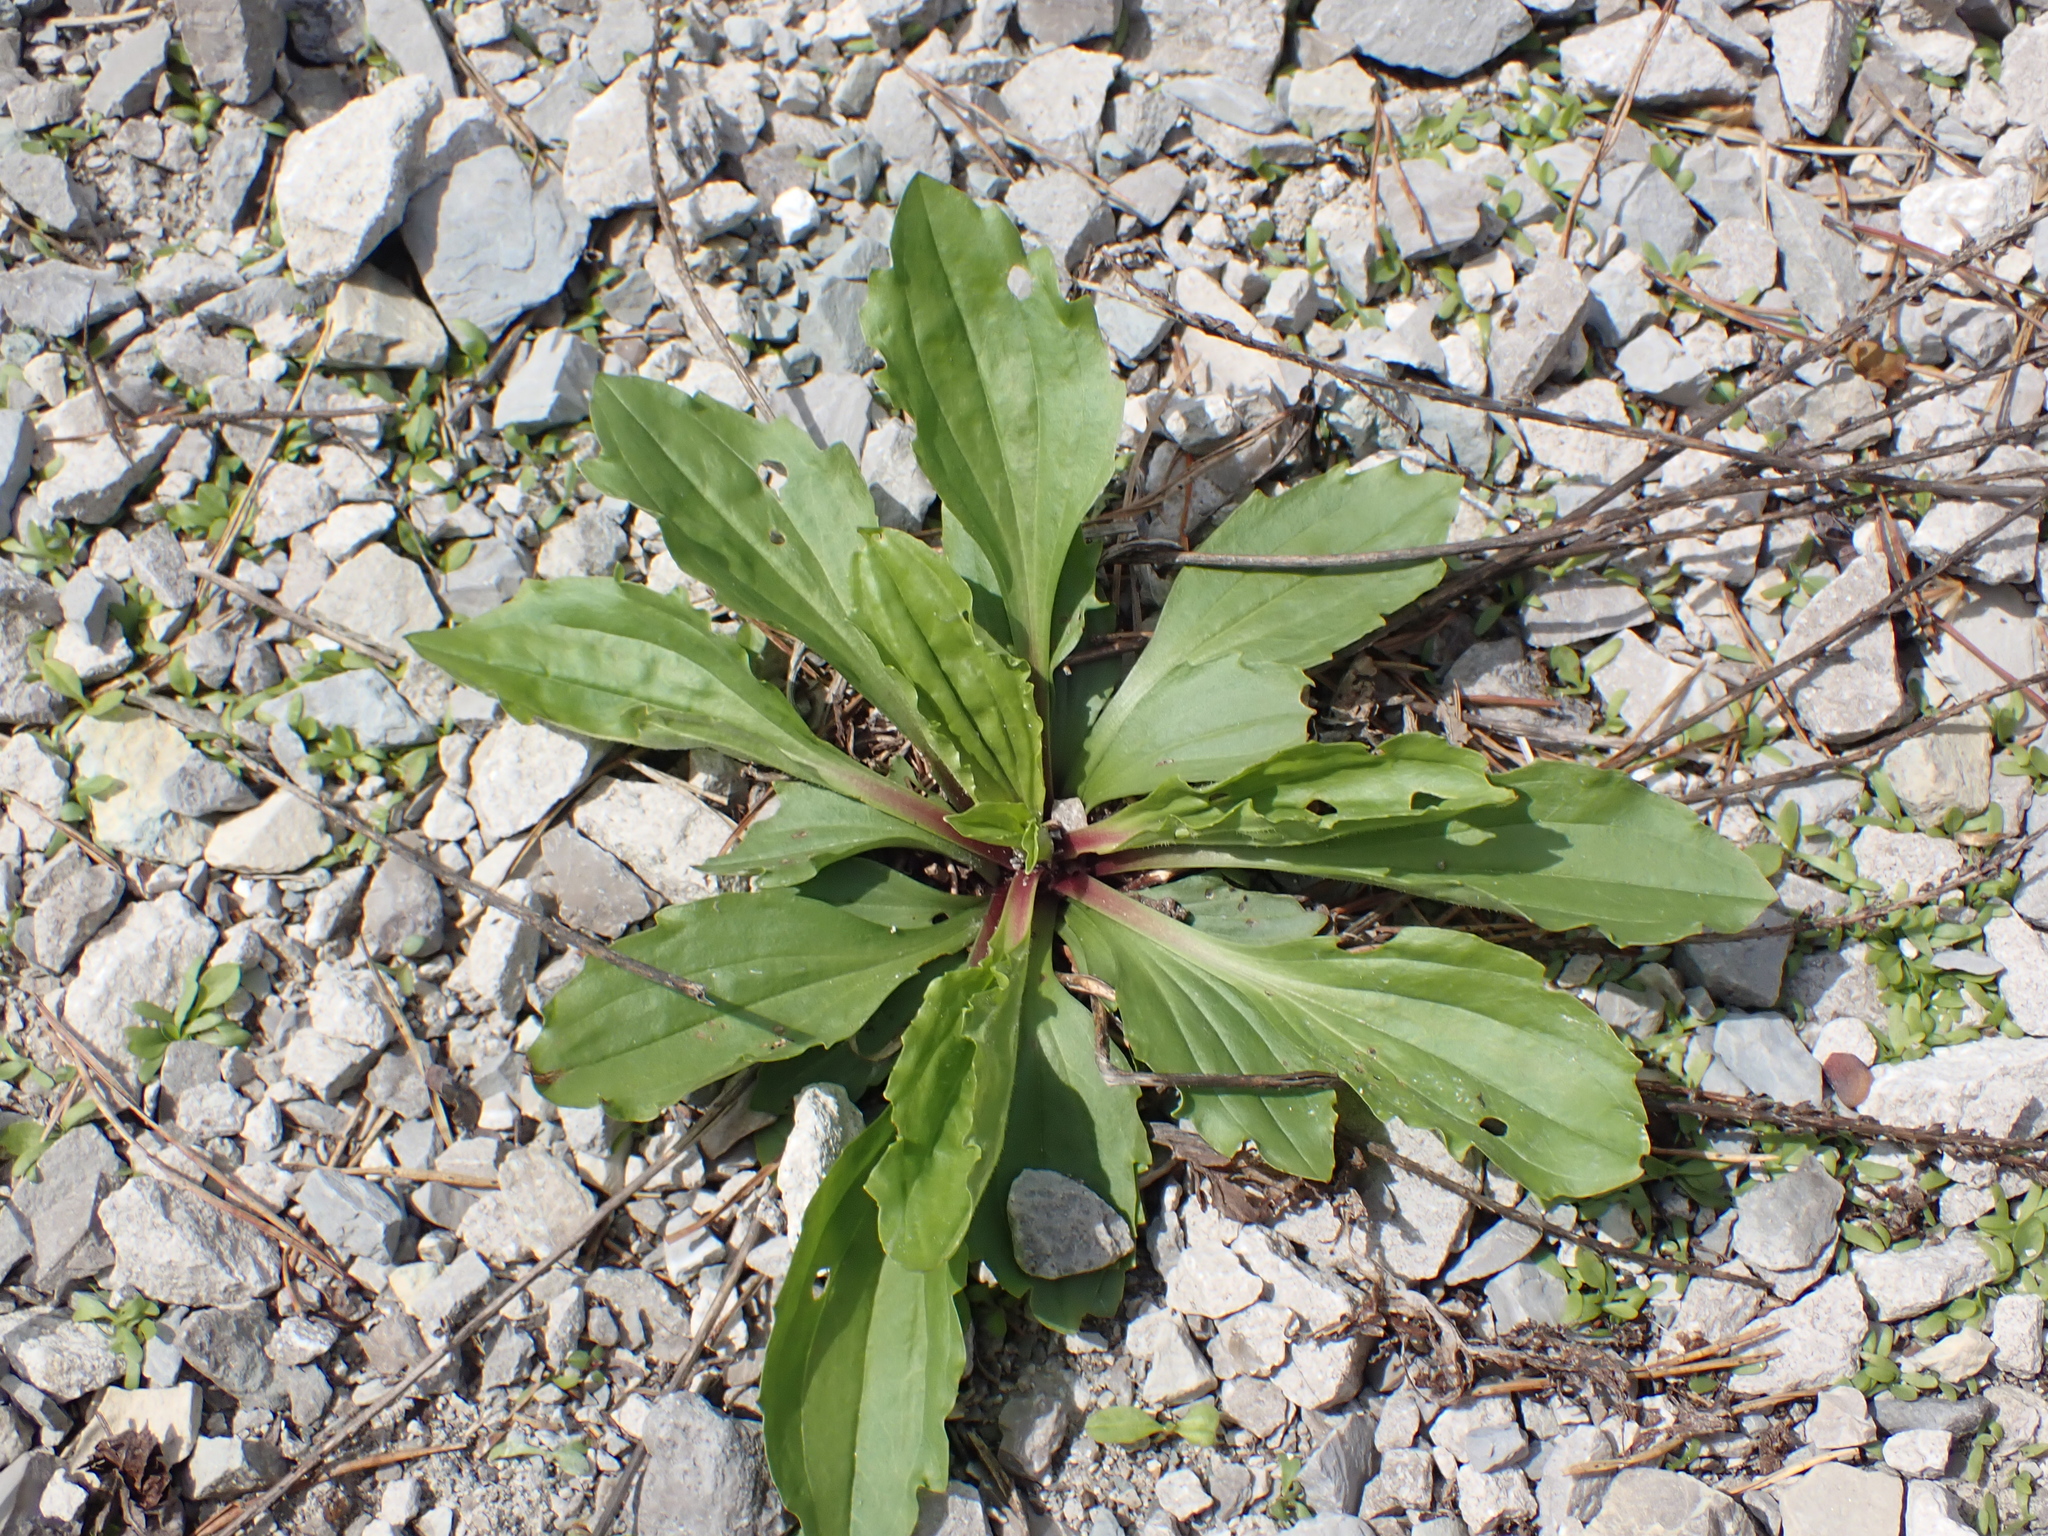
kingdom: Plantae
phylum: Tracheophyta
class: Magnoliopsida
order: Lamiales
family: Plantaginaceae
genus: Plantago
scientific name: Plantago rugelii
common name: American plantain
